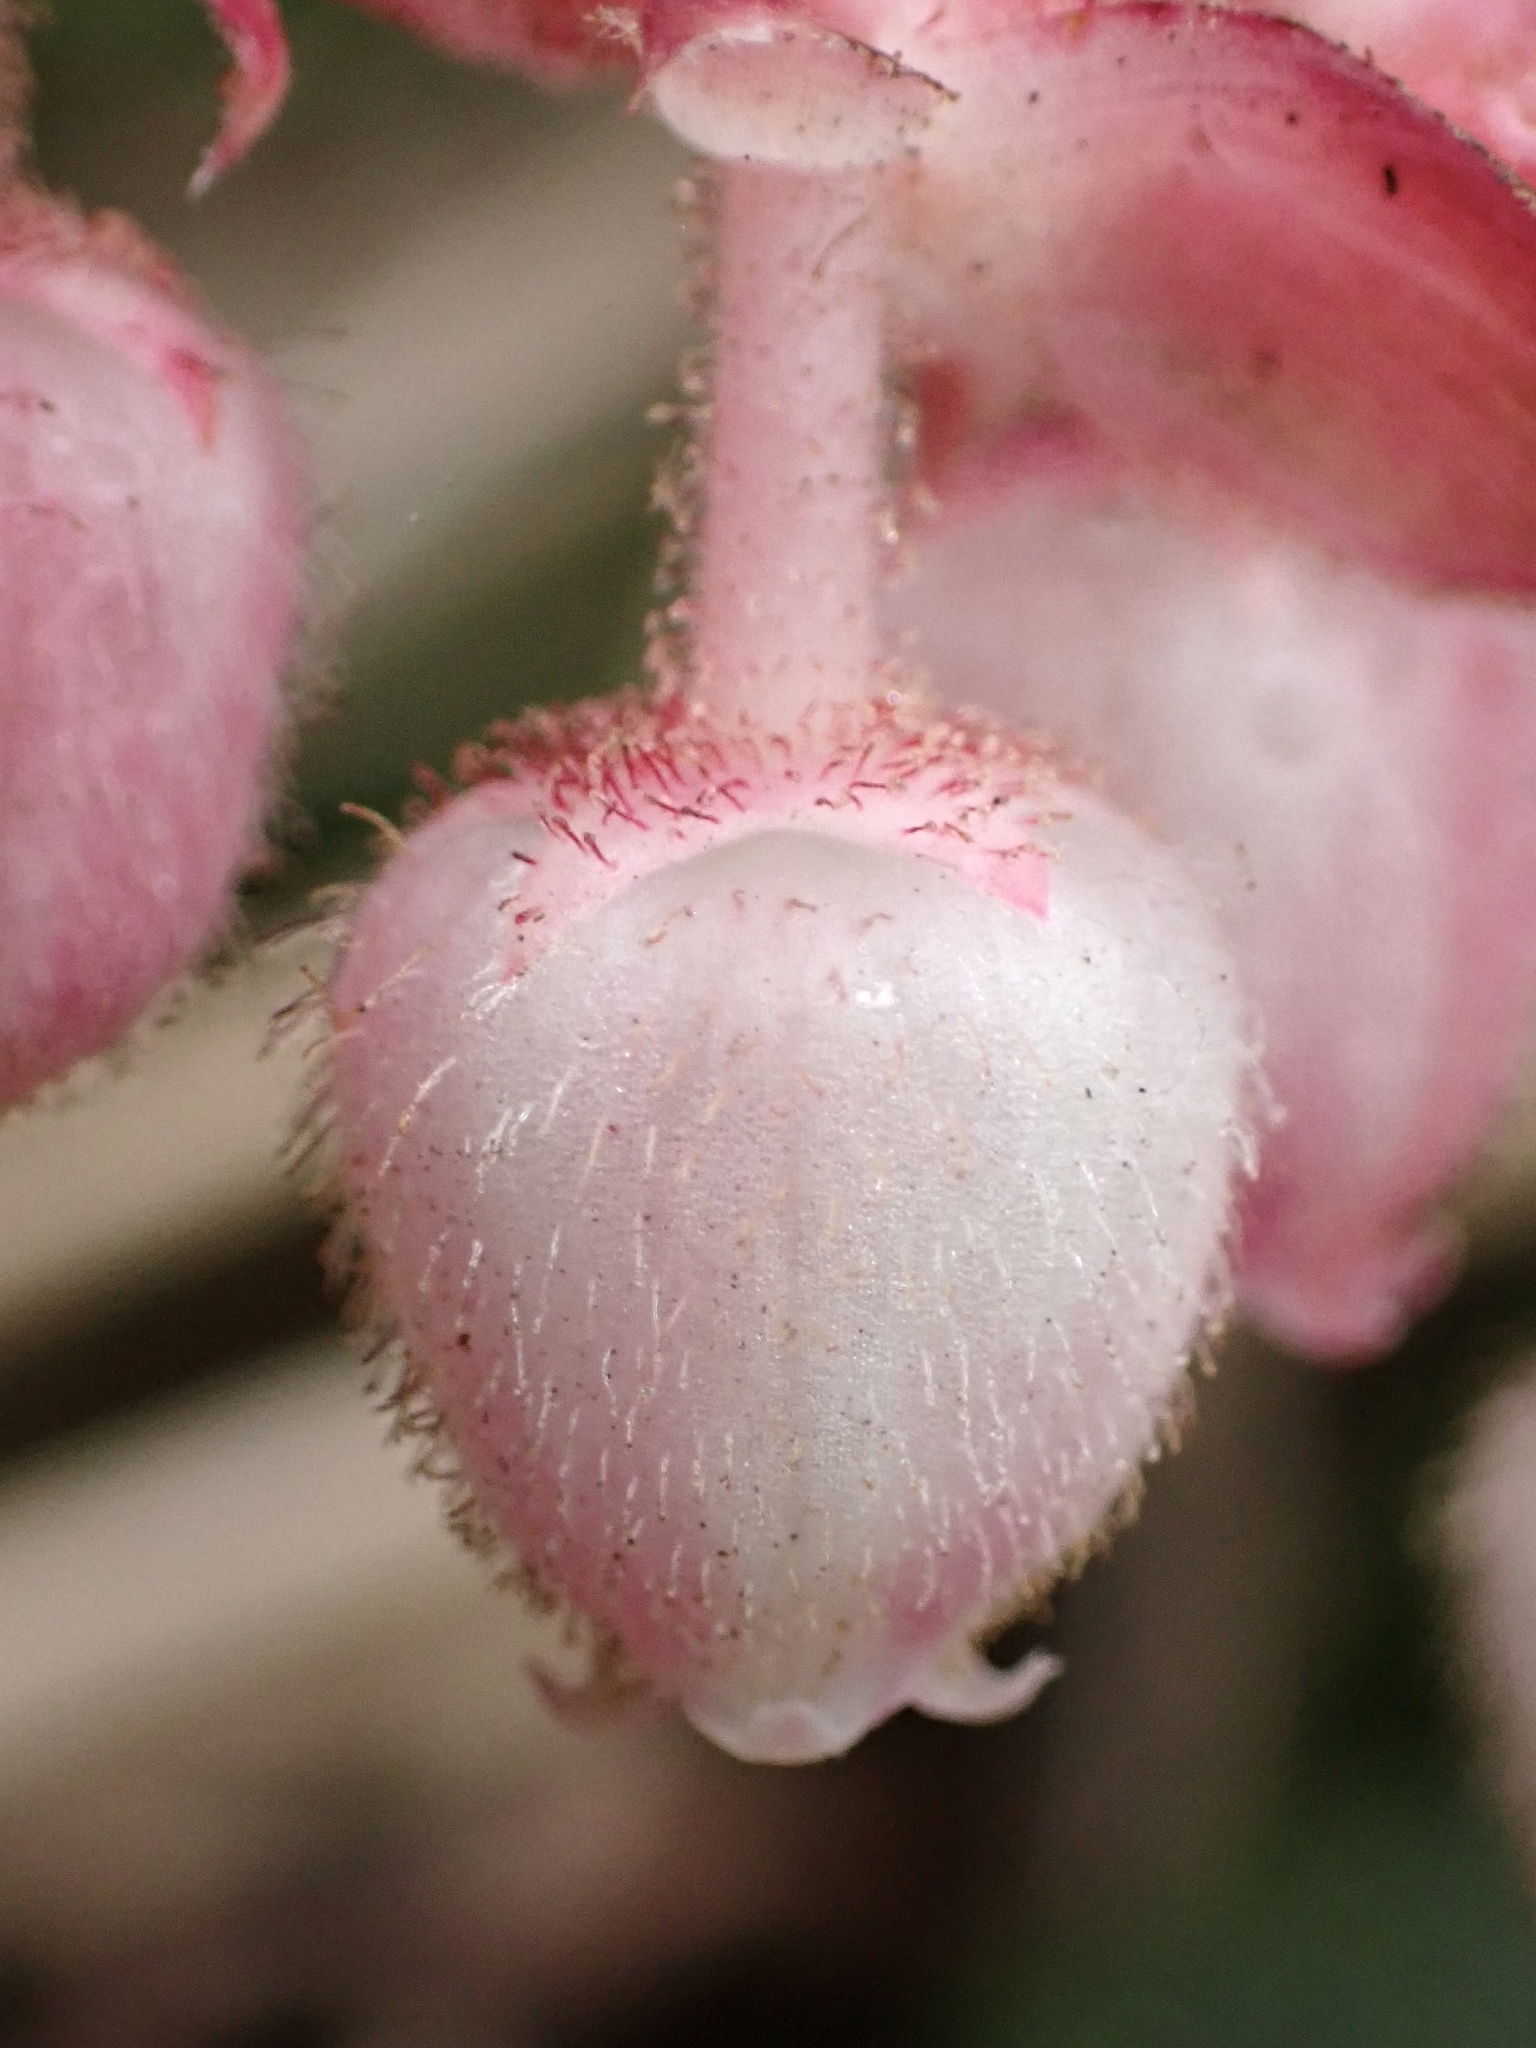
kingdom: Plantae
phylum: Tracheophyta
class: Magnoliopsida
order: Ericales
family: Ericaceae
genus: Gaultheria
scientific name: Gaultheria shallon
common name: Shallon
